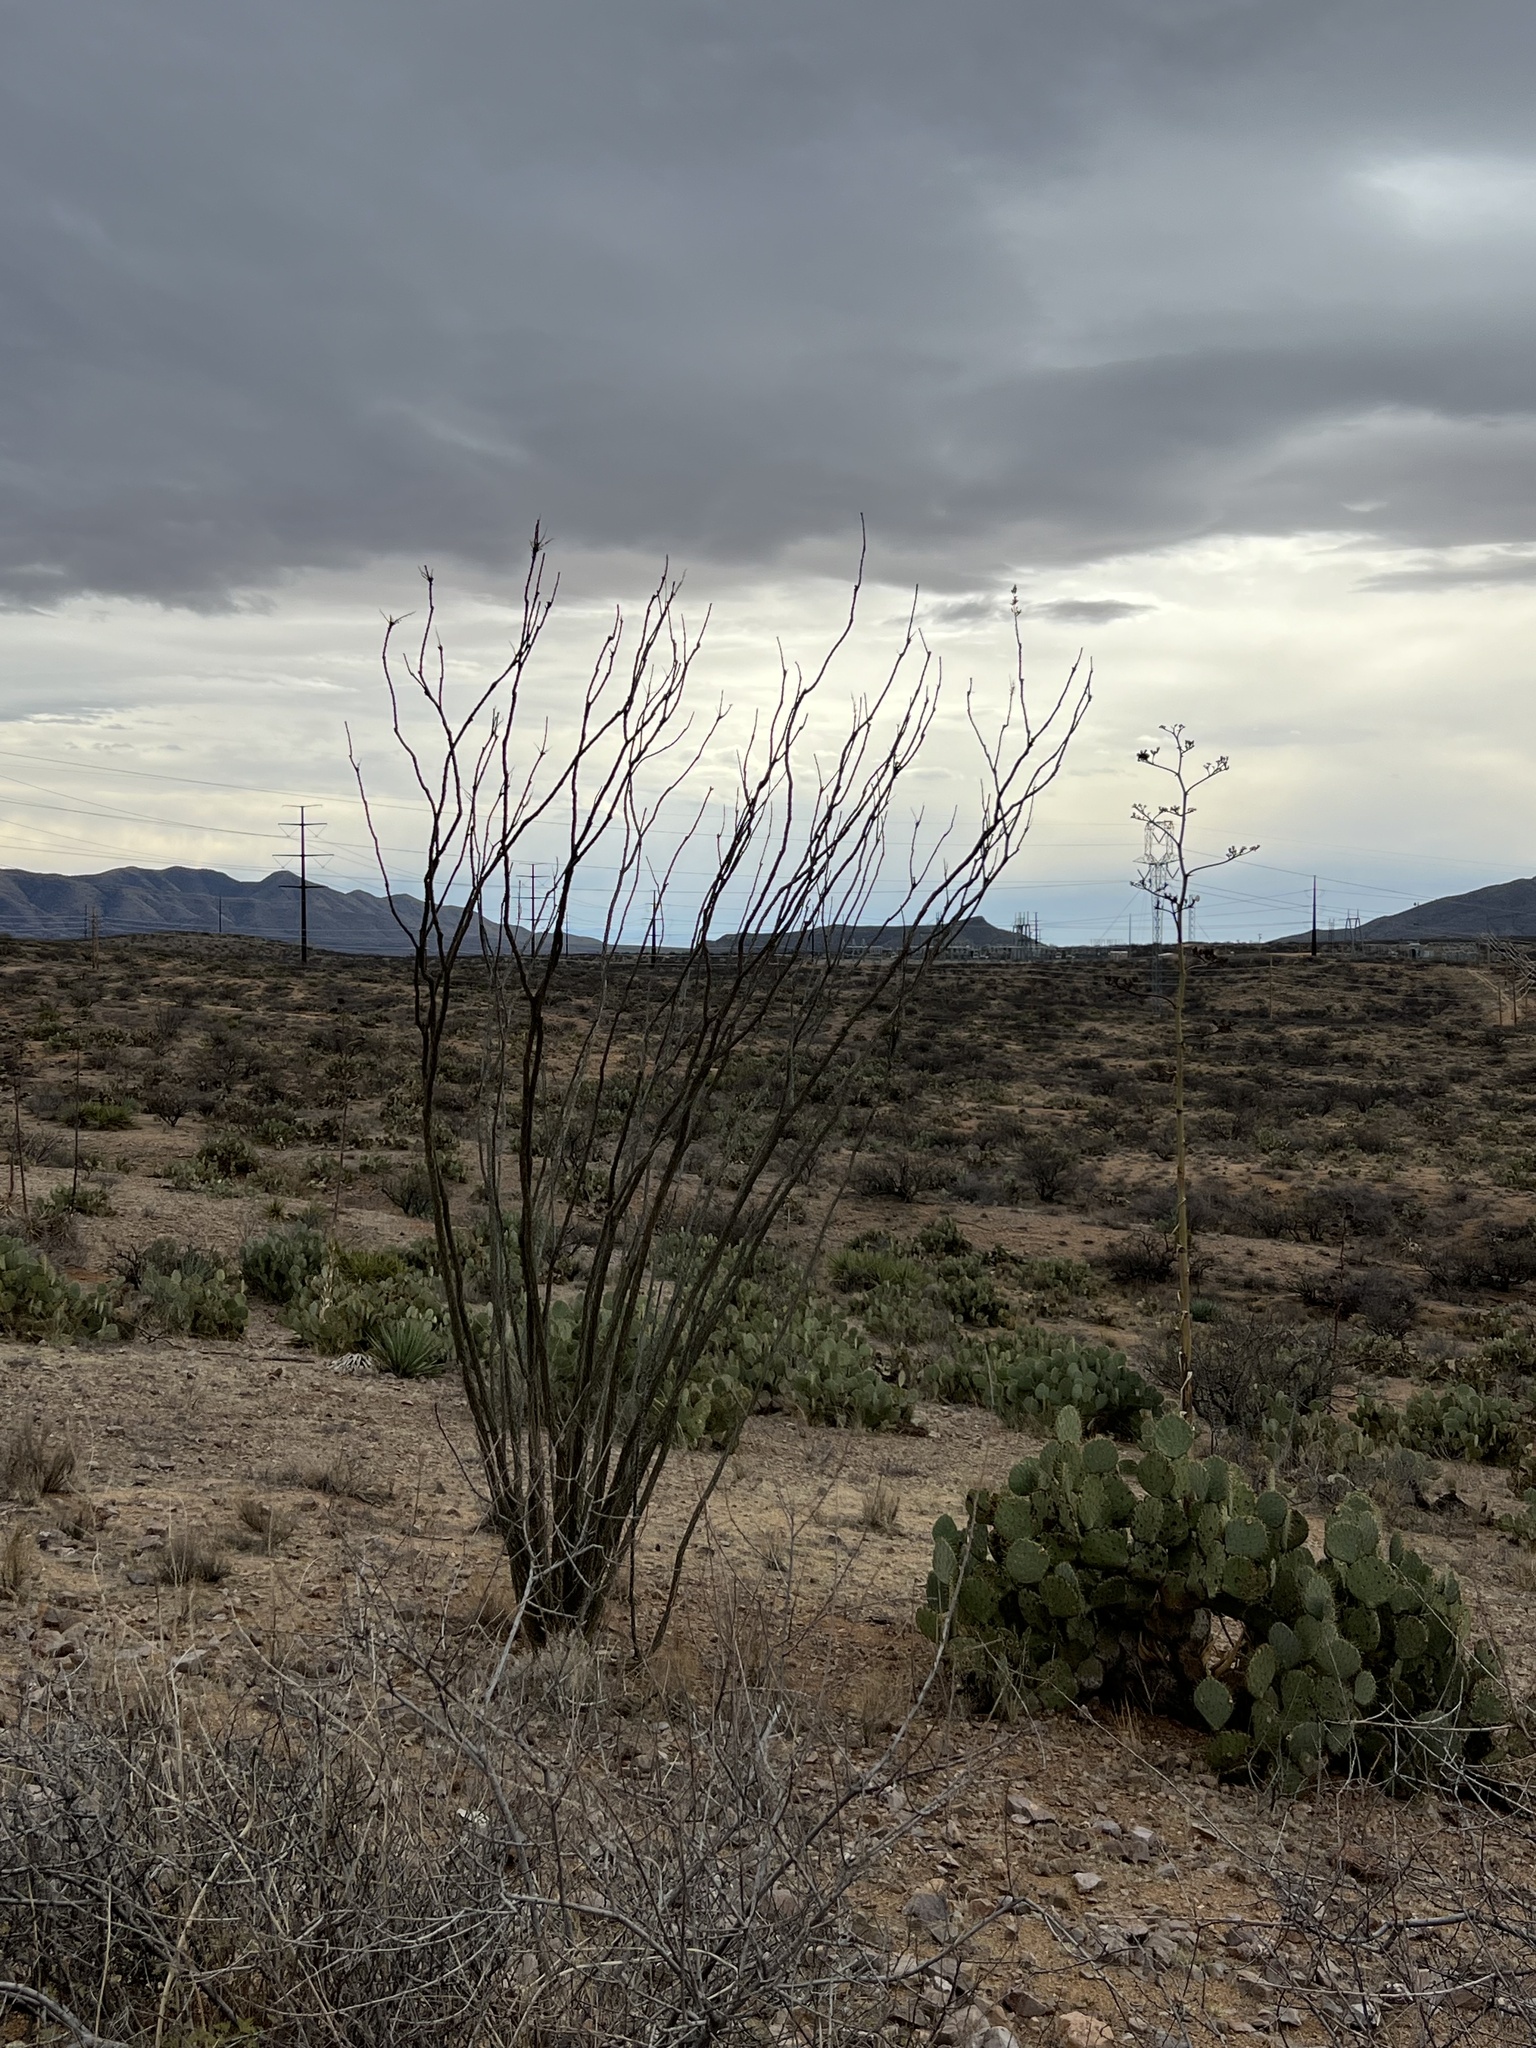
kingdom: Plantae
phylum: Tracheophyta
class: Magnoliopsida
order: Ericales
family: Fouquieriaceae
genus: Fouquieria
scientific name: Fouquieria splendens
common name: Vine-cactus
